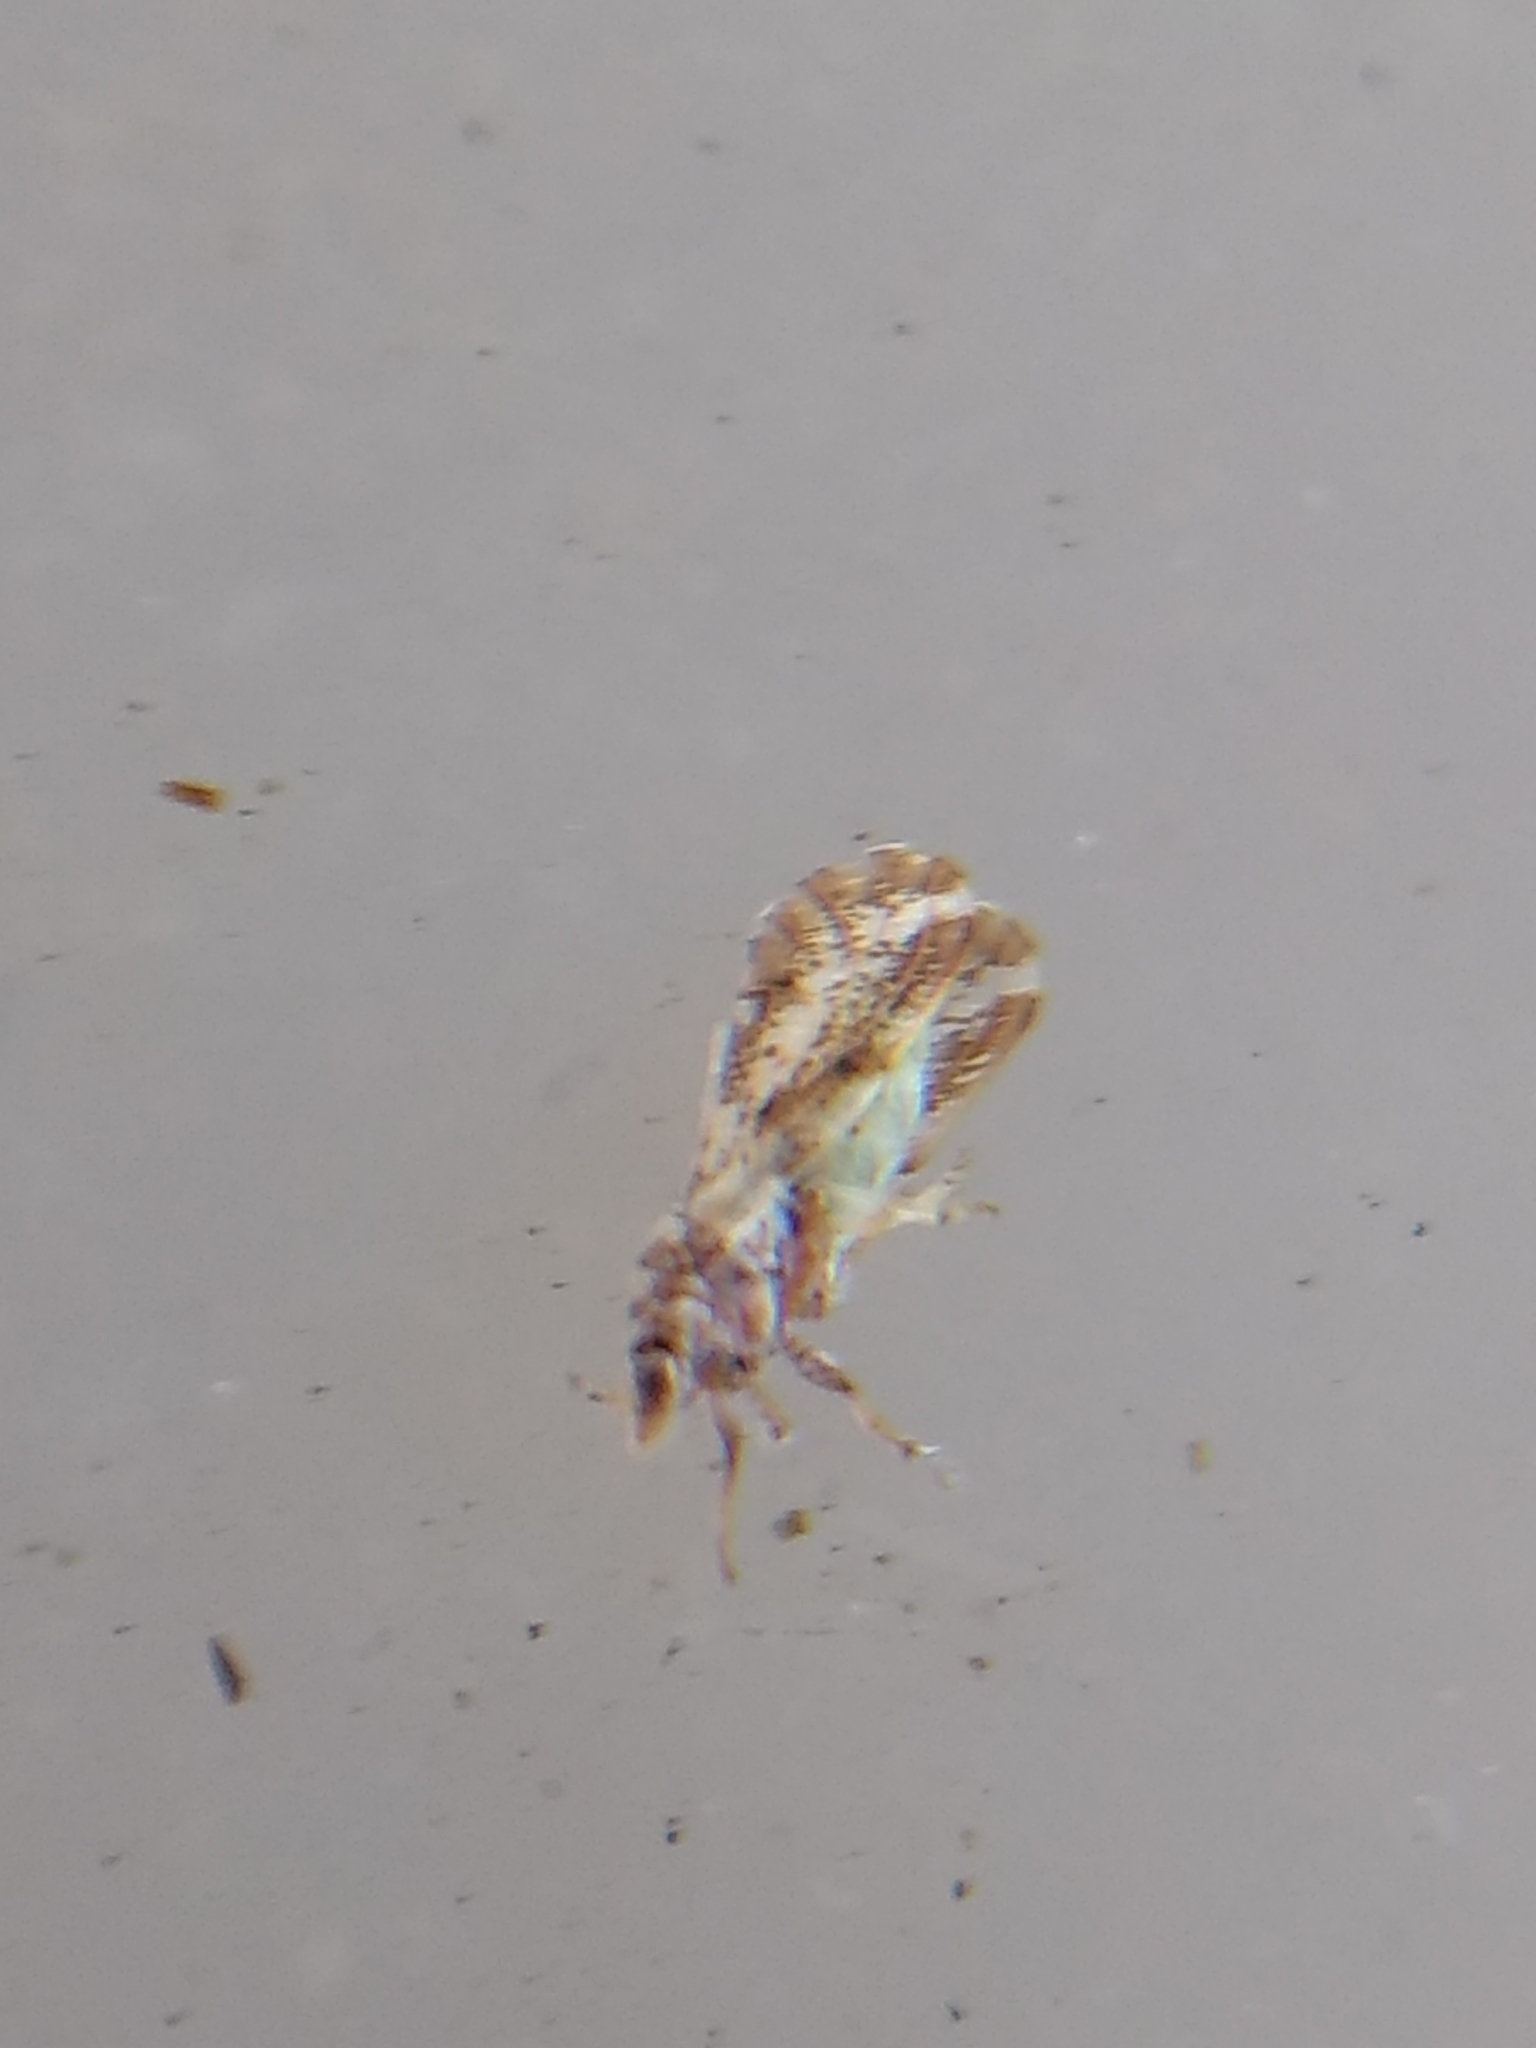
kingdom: Animalia
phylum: Arthropoda
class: Insecta
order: Hemiptera
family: Liviidae
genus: Diaphorina
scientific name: Diaphorina citri
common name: Asian citrus psyllid
